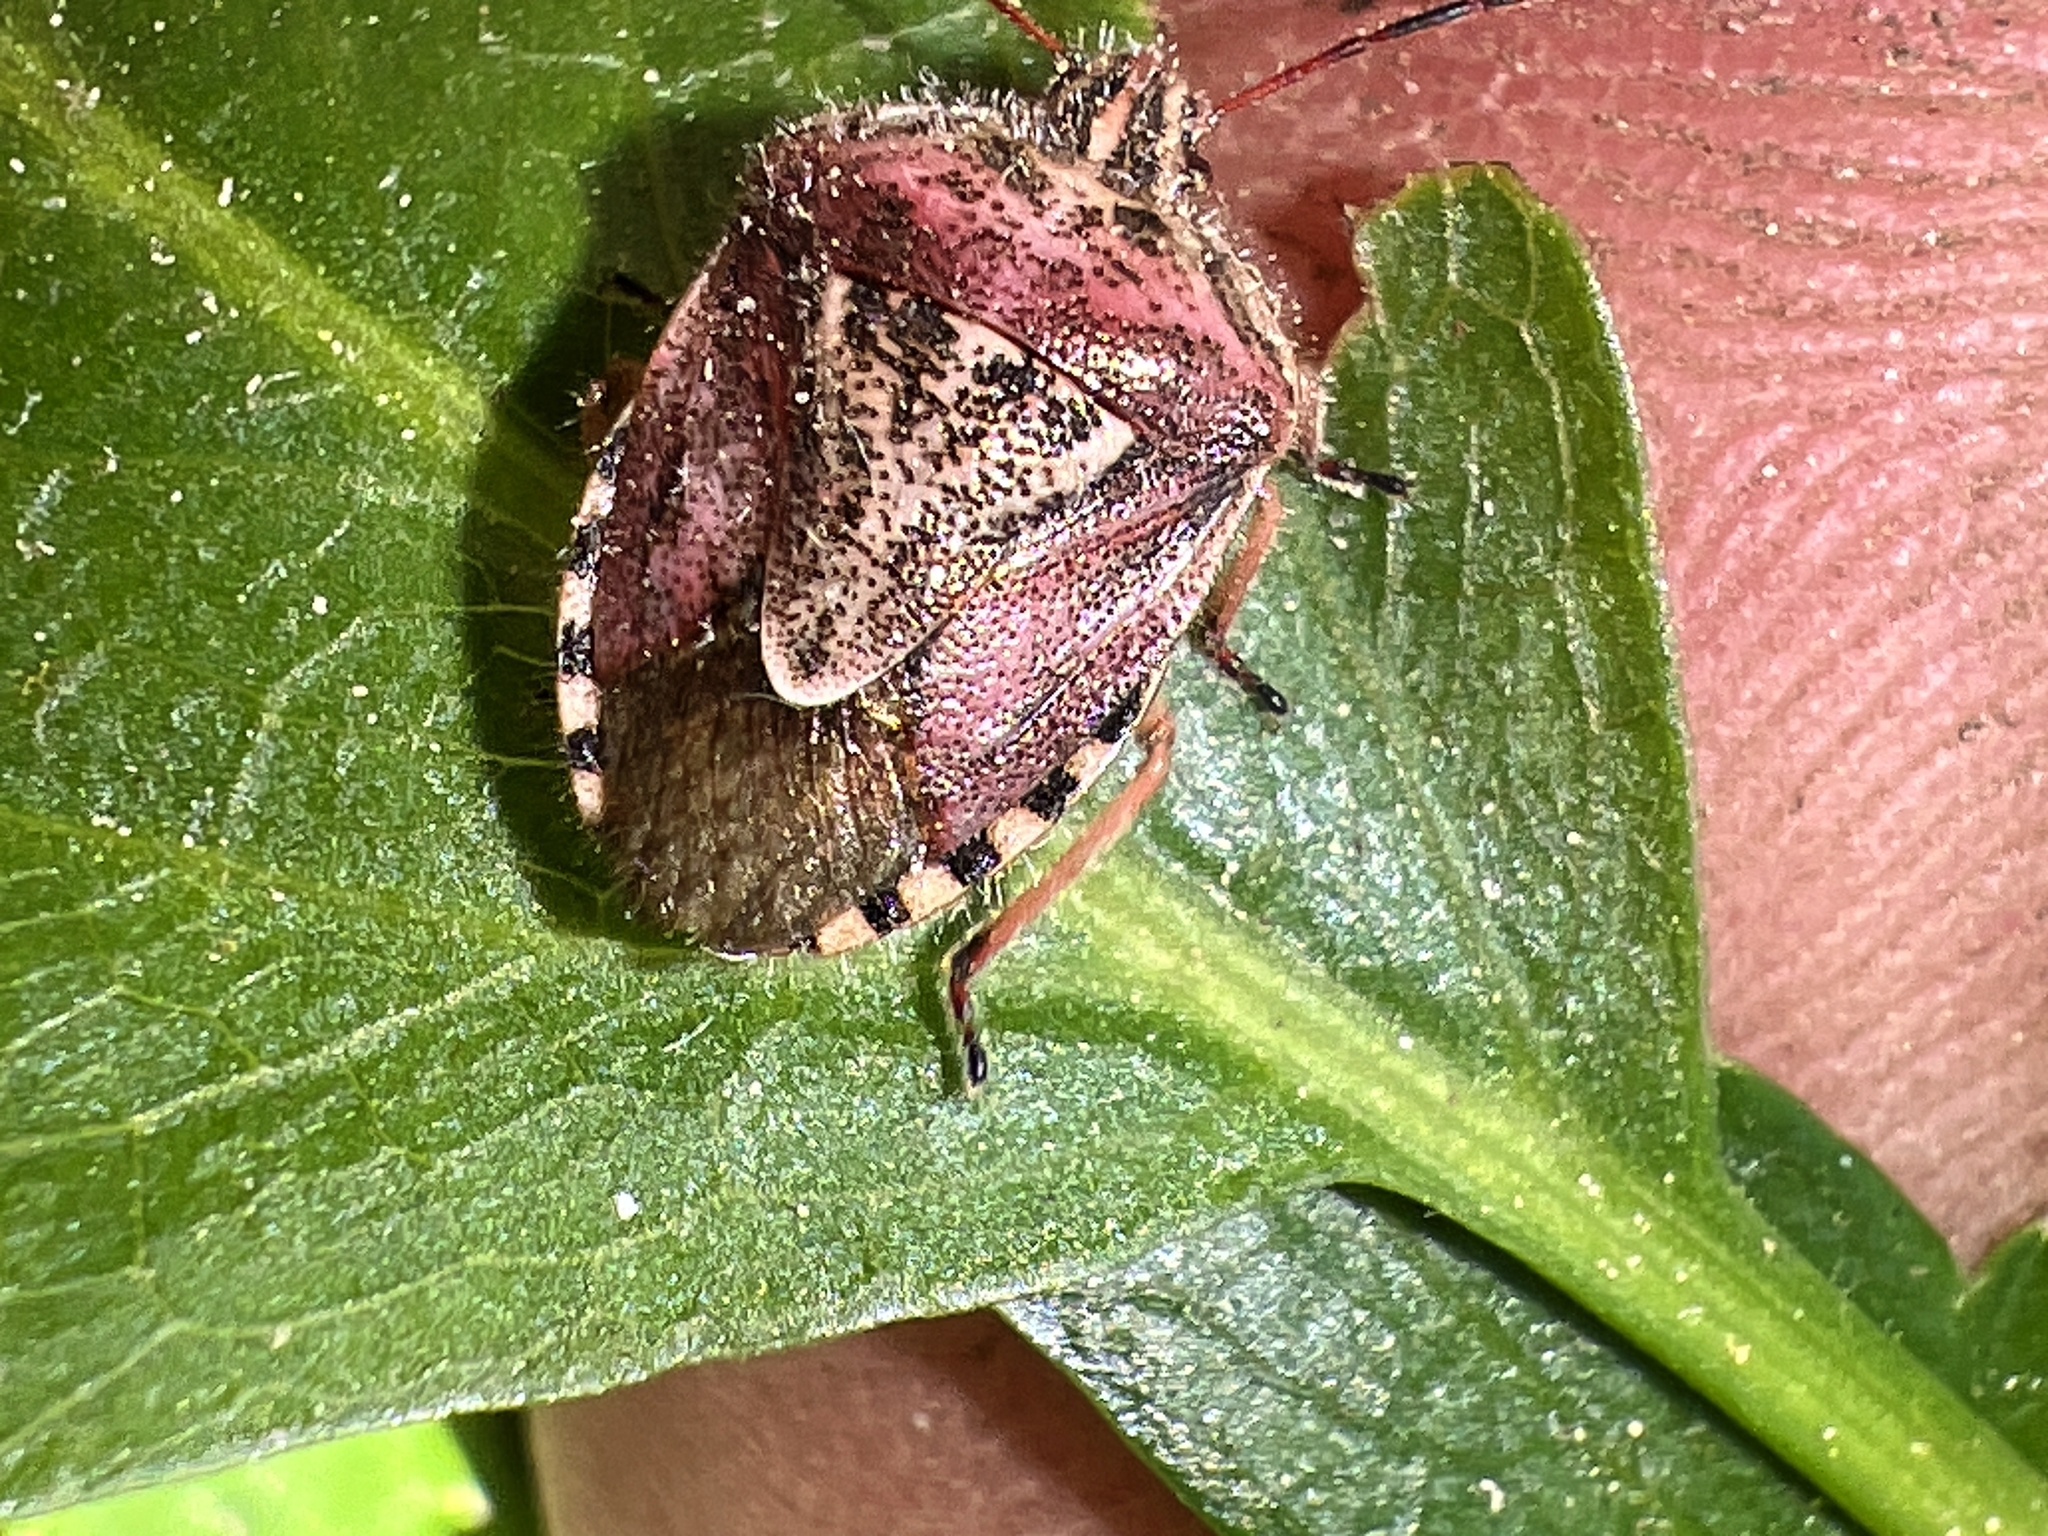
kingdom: Animalia
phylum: Arthropoda
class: Insecta
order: Hemiptera
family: Pentatomidae
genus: Trichopepla
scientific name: Trichopepla semivittata
